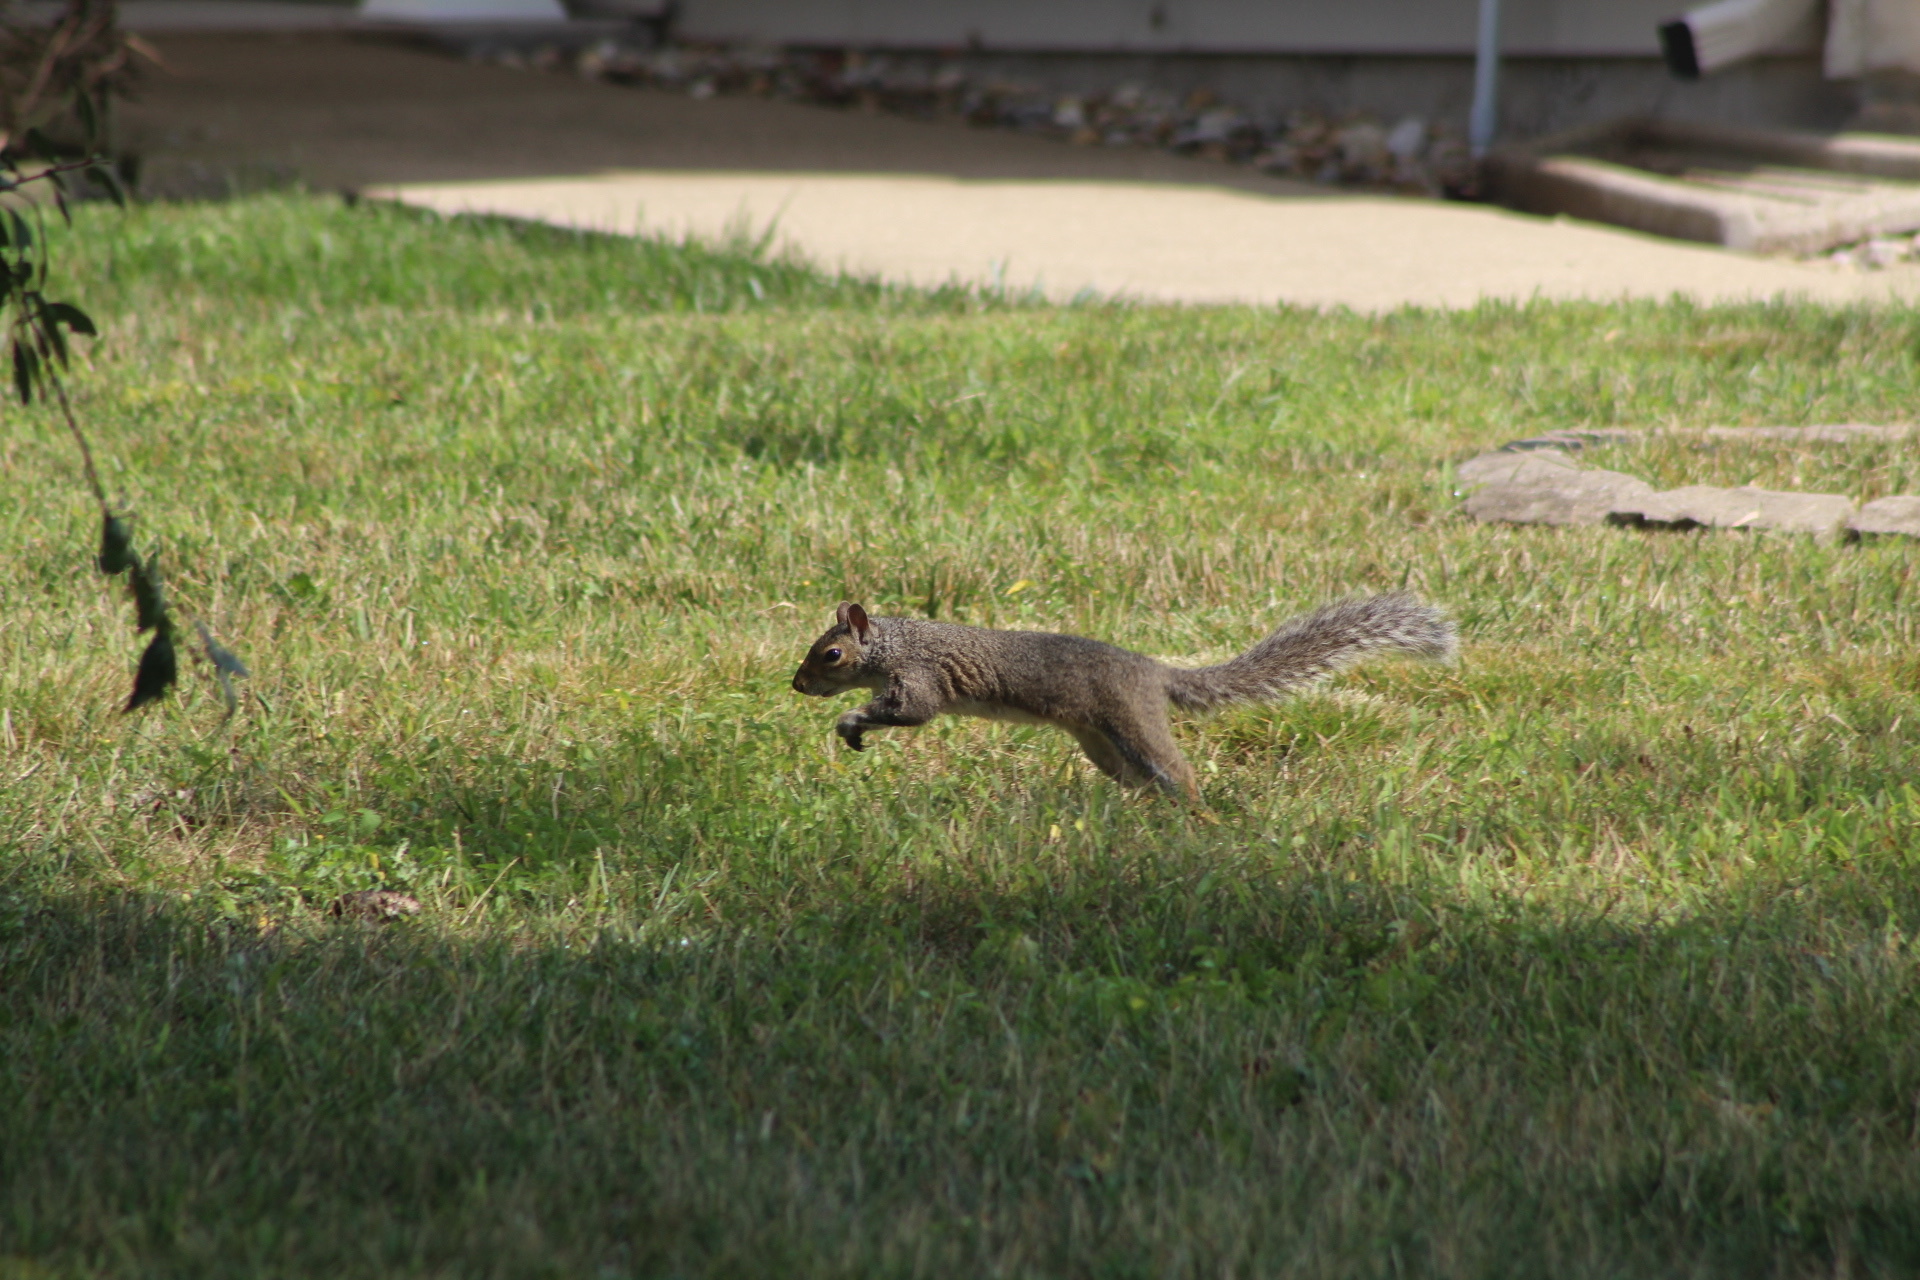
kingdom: Animalia
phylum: Chordata
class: Mammalia
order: Rodentia
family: Sciuridae
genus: Sciurus
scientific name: Sciurus carolinensis
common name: Eastern gray squirrel
